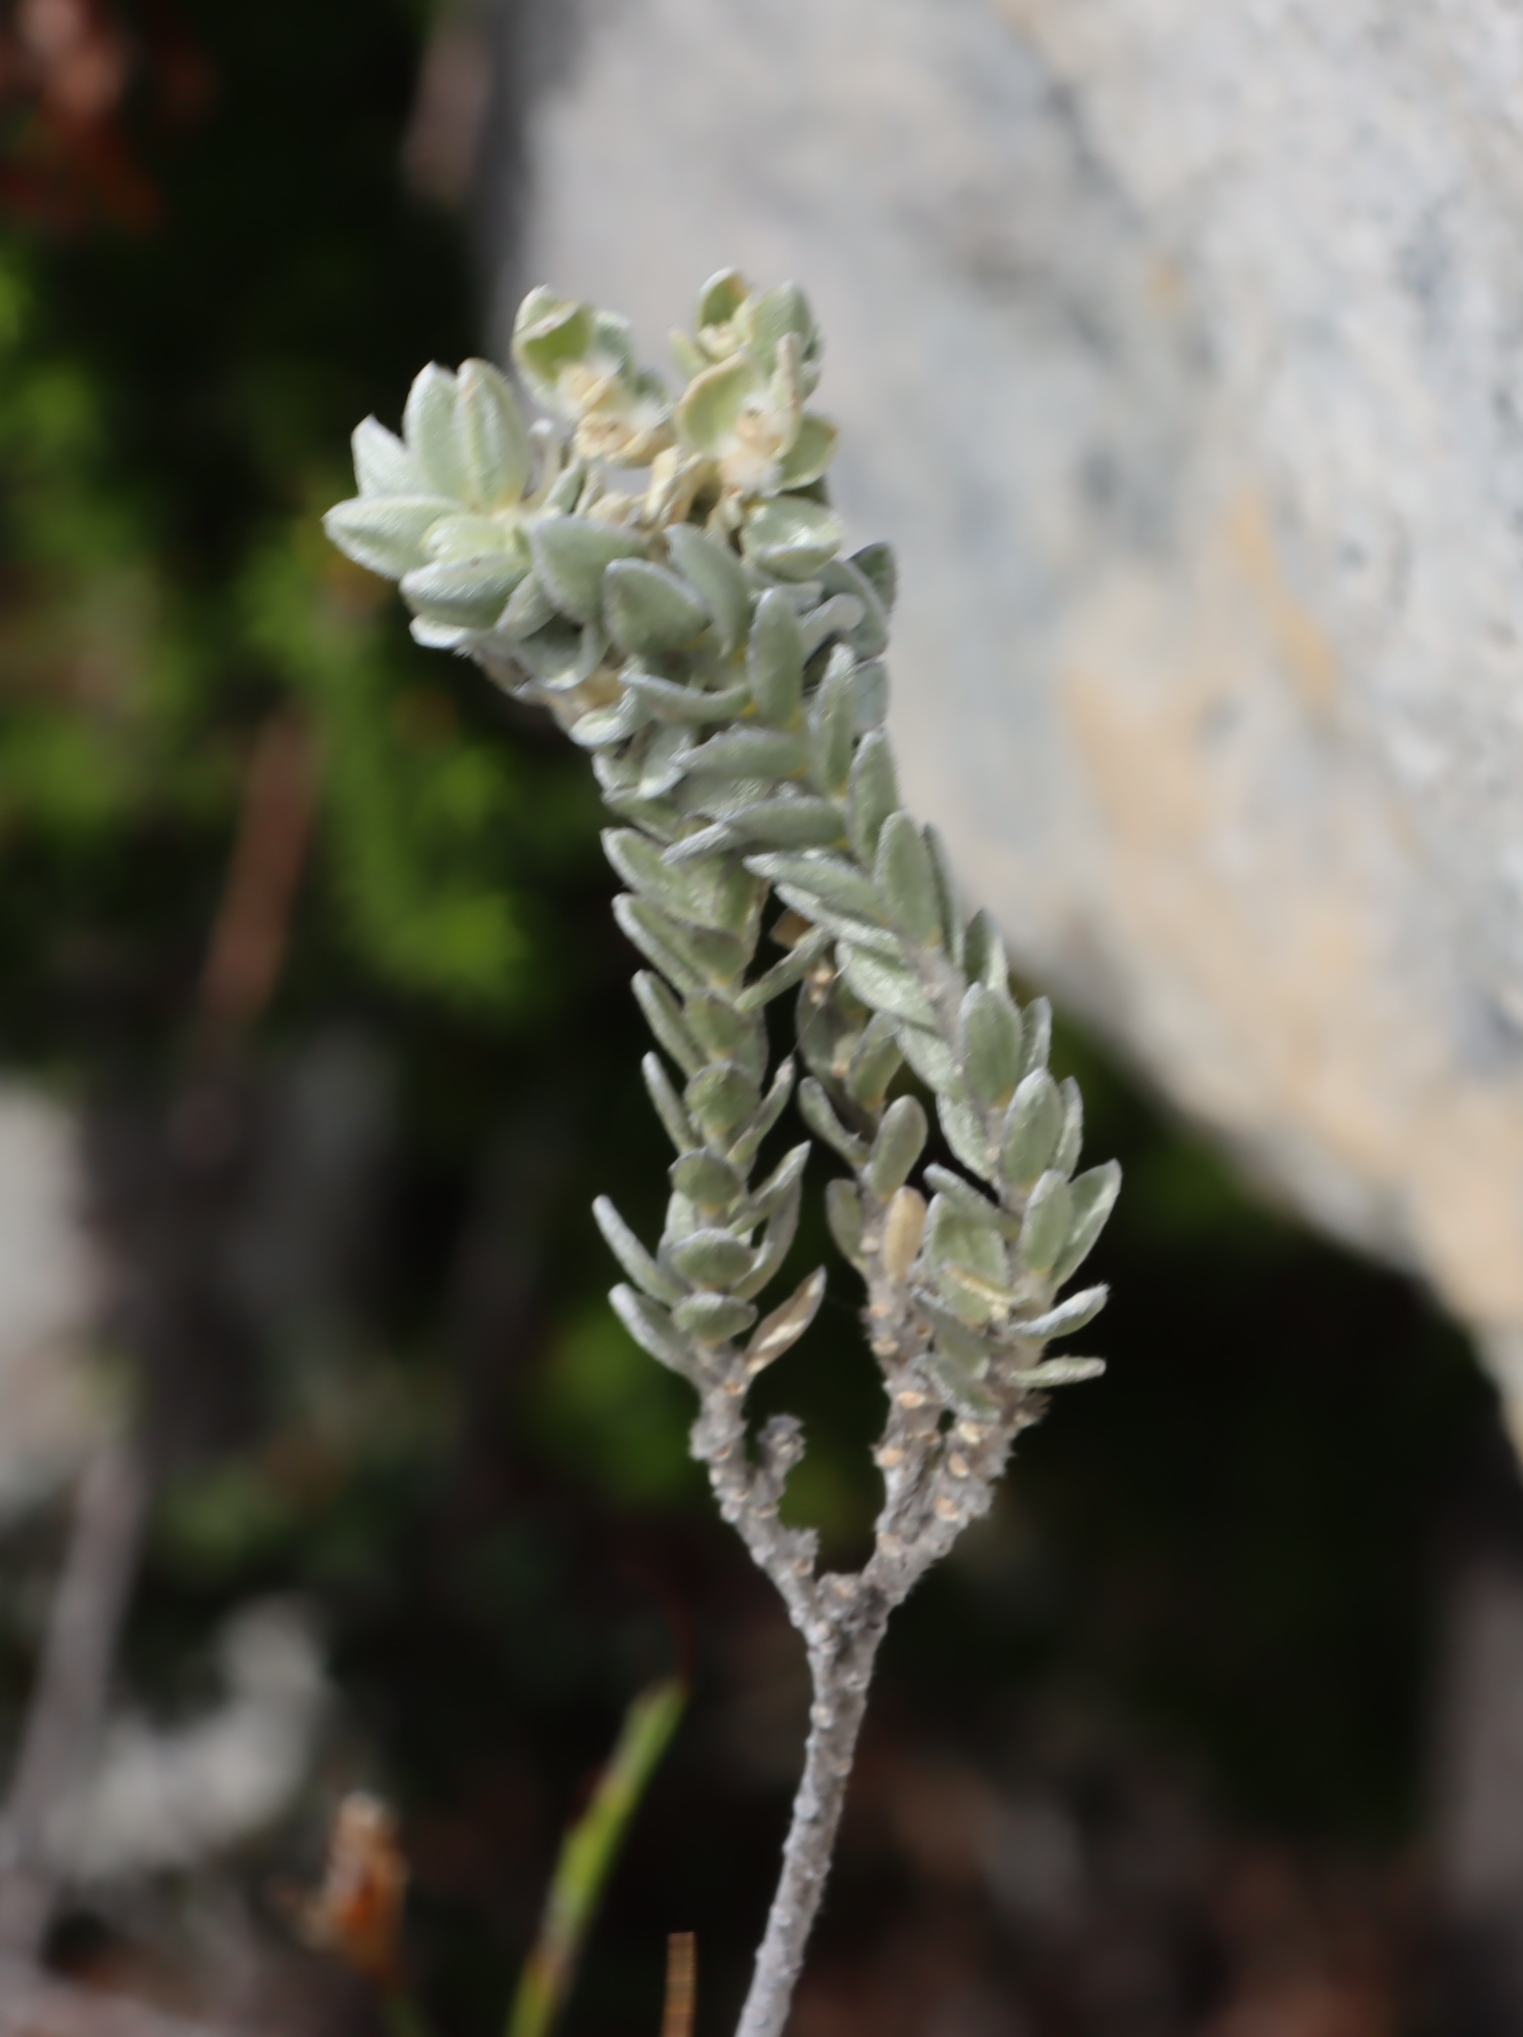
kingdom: Plantae
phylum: Tracheophyta
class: Magnoliopsida
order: Malvales
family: Thymelaeaceae
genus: Gnidia
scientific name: Gnidia imbricata
